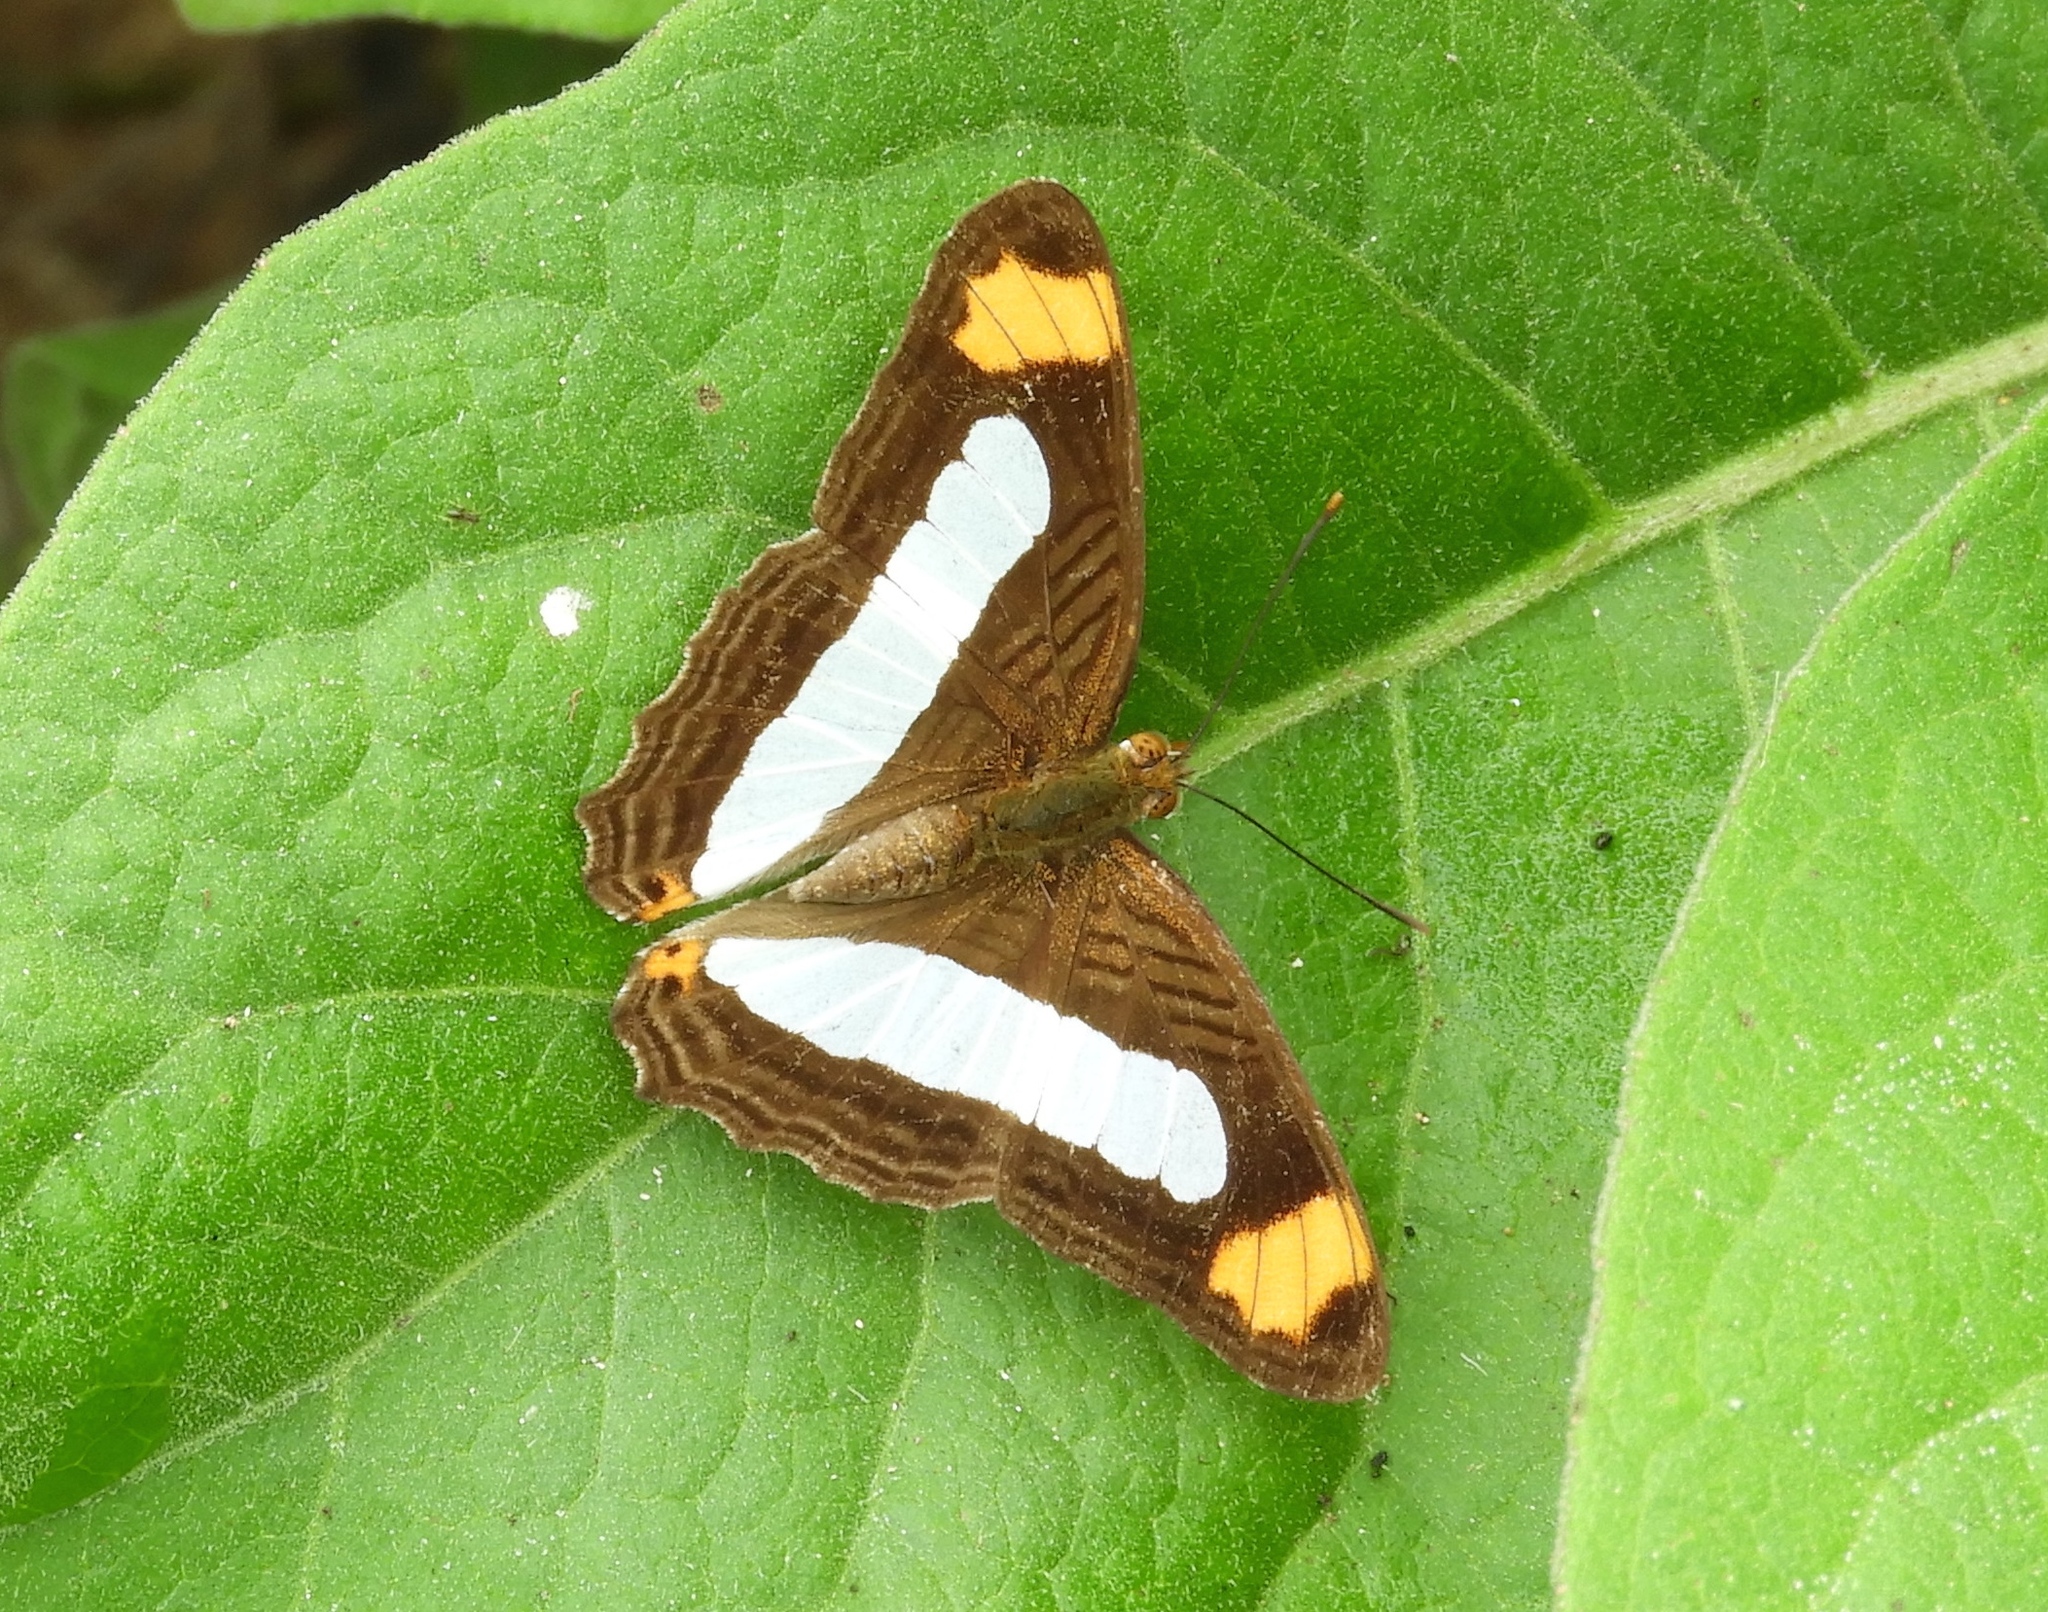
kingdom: Animalia
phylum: Arthropoda
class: Insecta
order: Lepidoptera
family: Nymphalidae
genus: Limenitis
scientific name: Limenitis iphiclus
